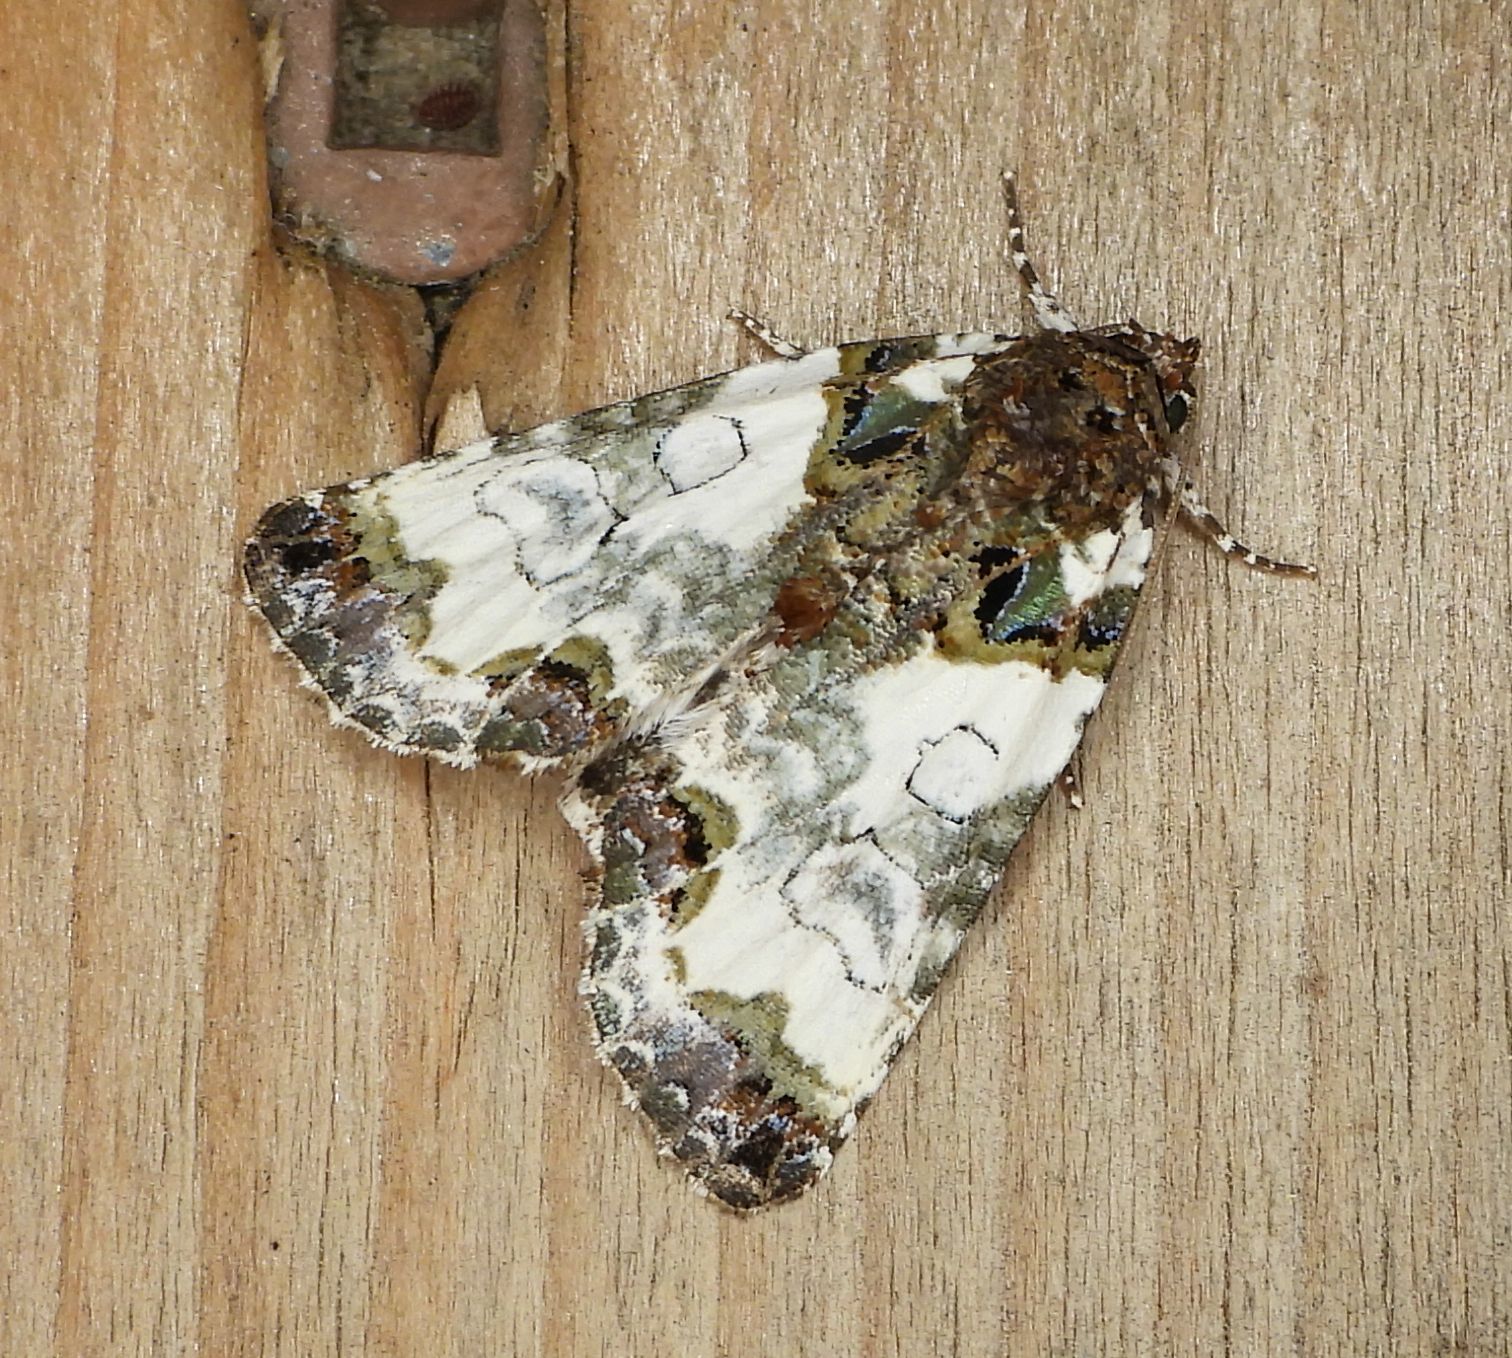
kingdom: Animalia
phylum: Arthropoda
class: Insecta
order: Lepidoptera
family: Noctuidae
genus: Cerma
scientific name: Cerma cerintha
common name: Tufted bird-dropping moth
